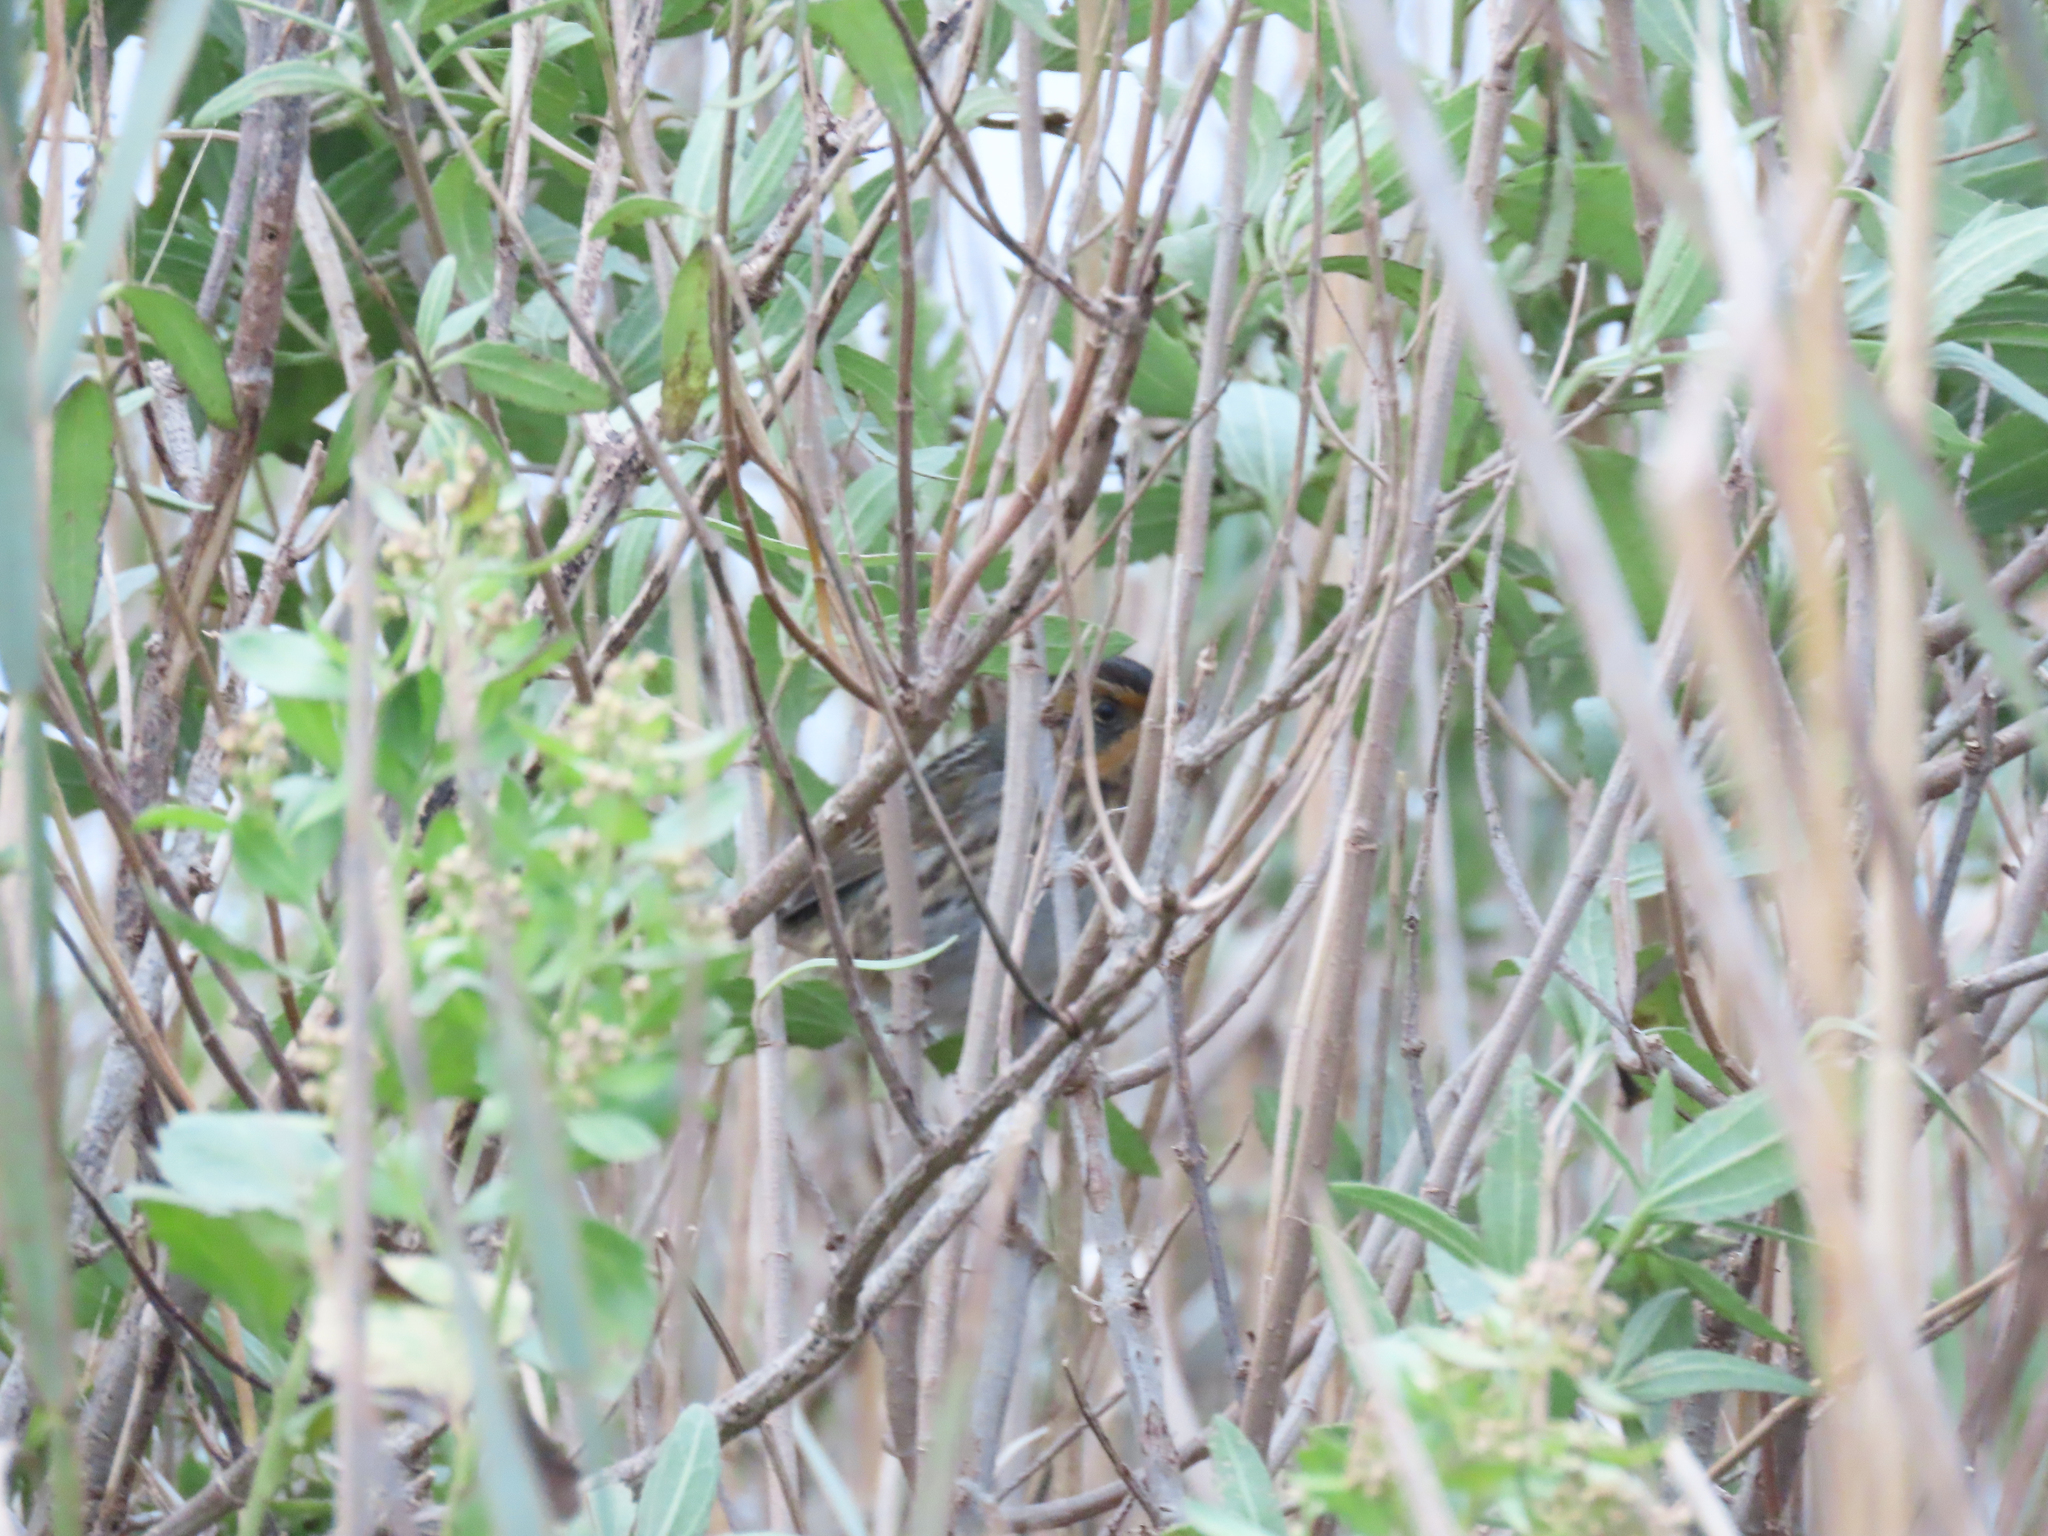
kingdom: Animalia
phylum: Chordata
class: Aves
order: Passeriformes
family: Passerellidae
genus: Ammospiza
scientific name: Ammospiza caudacuta
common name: Saltmarsh sparrow
